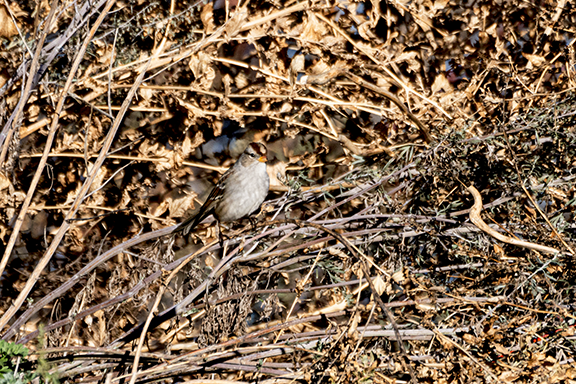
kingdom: Animalia
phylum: Chordata
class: Aves
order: Passeriformes
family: Passerellidae
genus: Zonotrichia
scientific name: Zonotrichia leucophrys
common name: White-crowned sparrow
